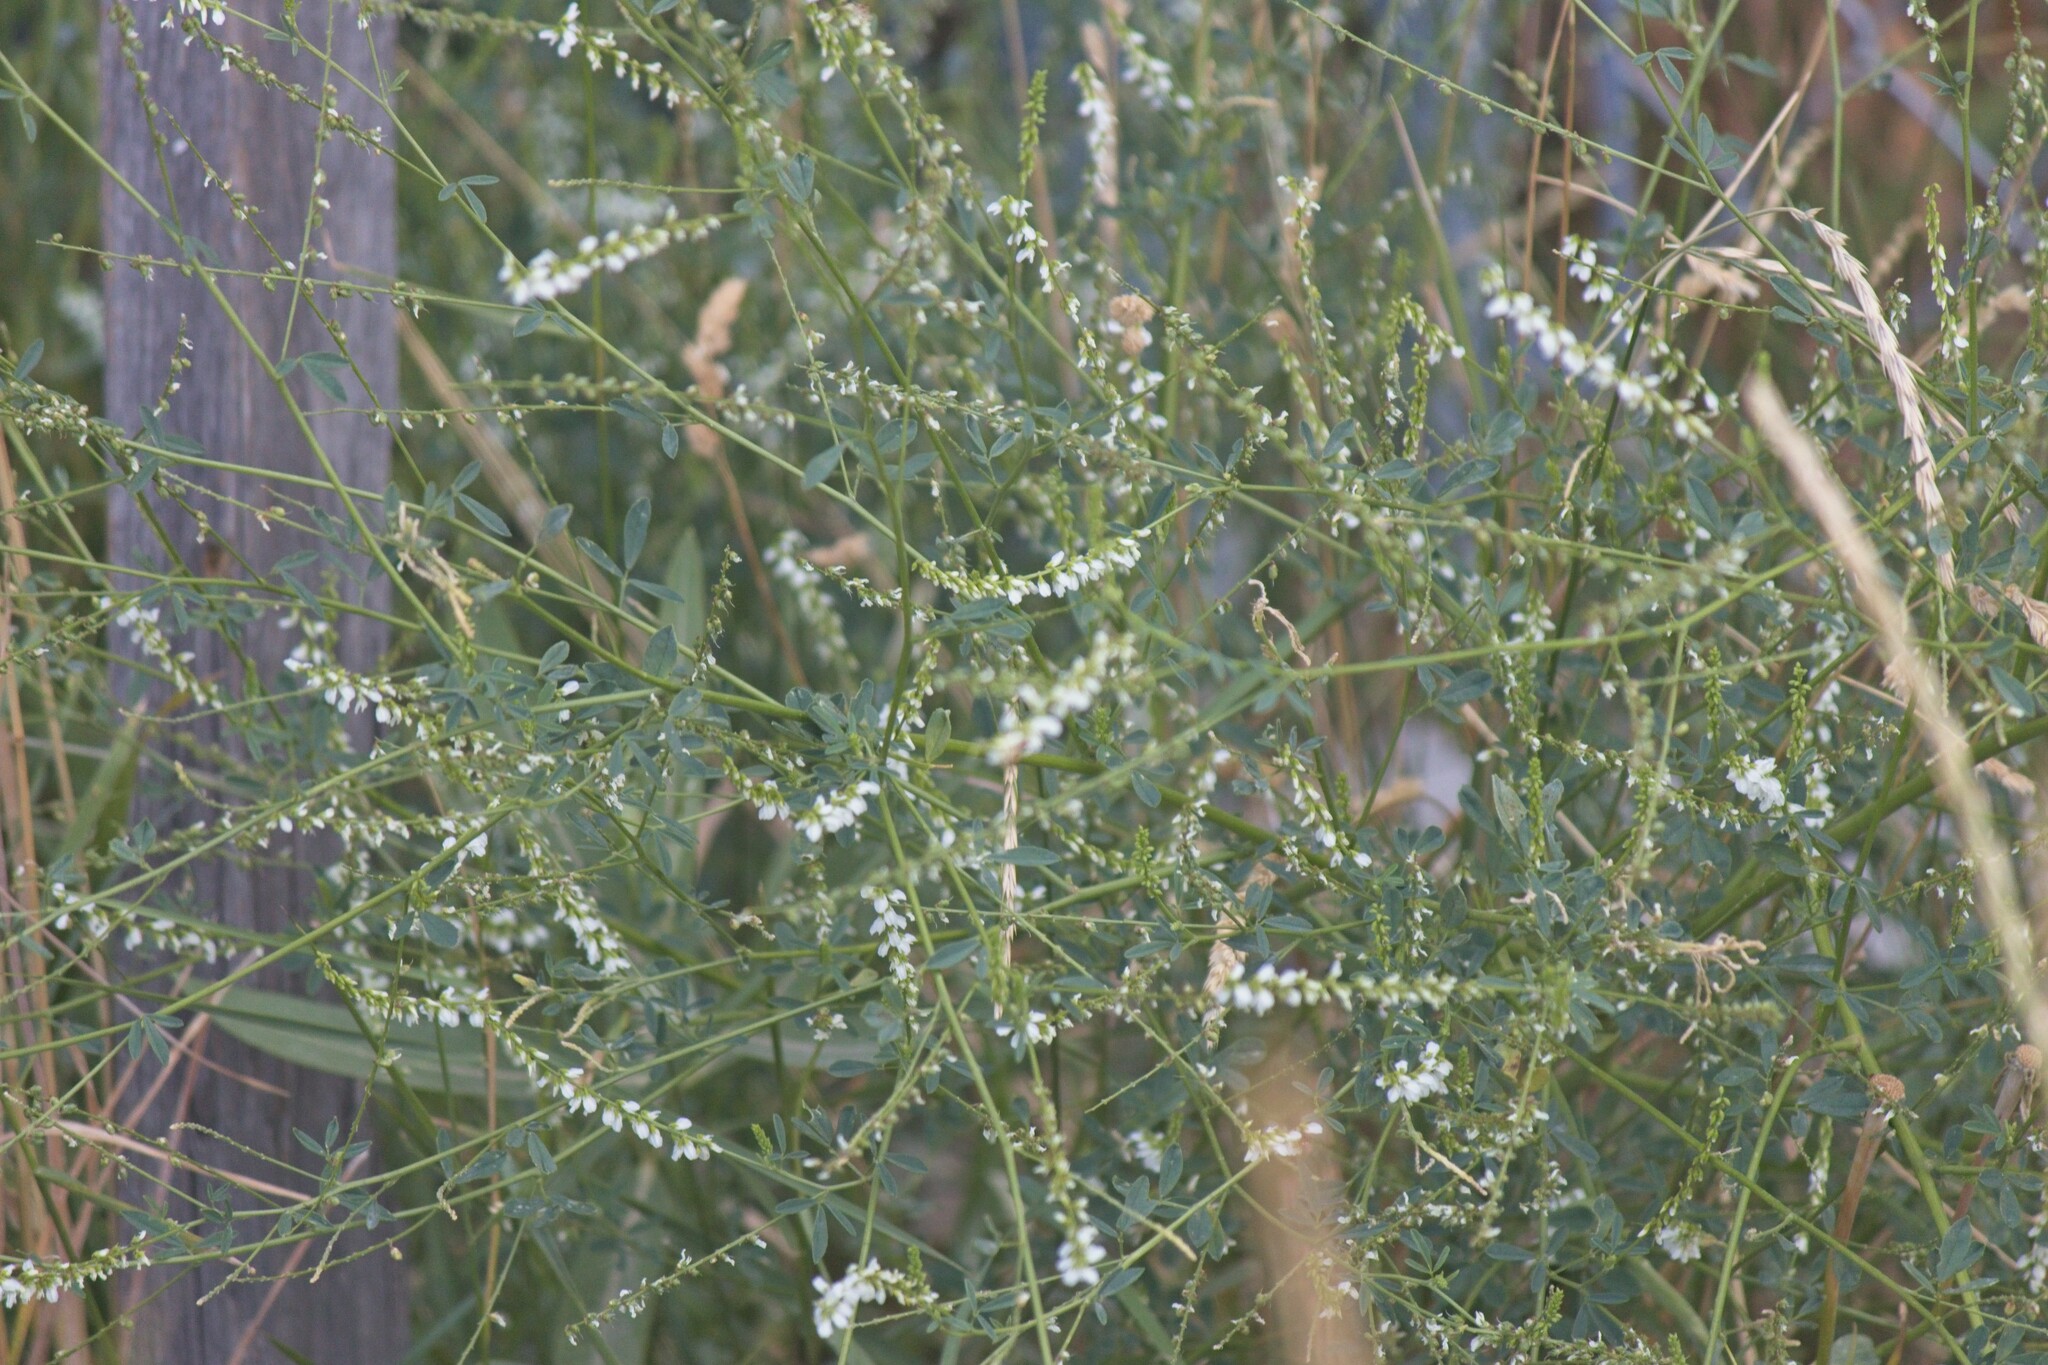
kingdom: Plantae
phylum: Tracheophyta
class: Magnoliopsida
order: Fabales
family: Fabaceae
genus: Melilotus
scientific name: Melilotus albus
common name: White melilot
